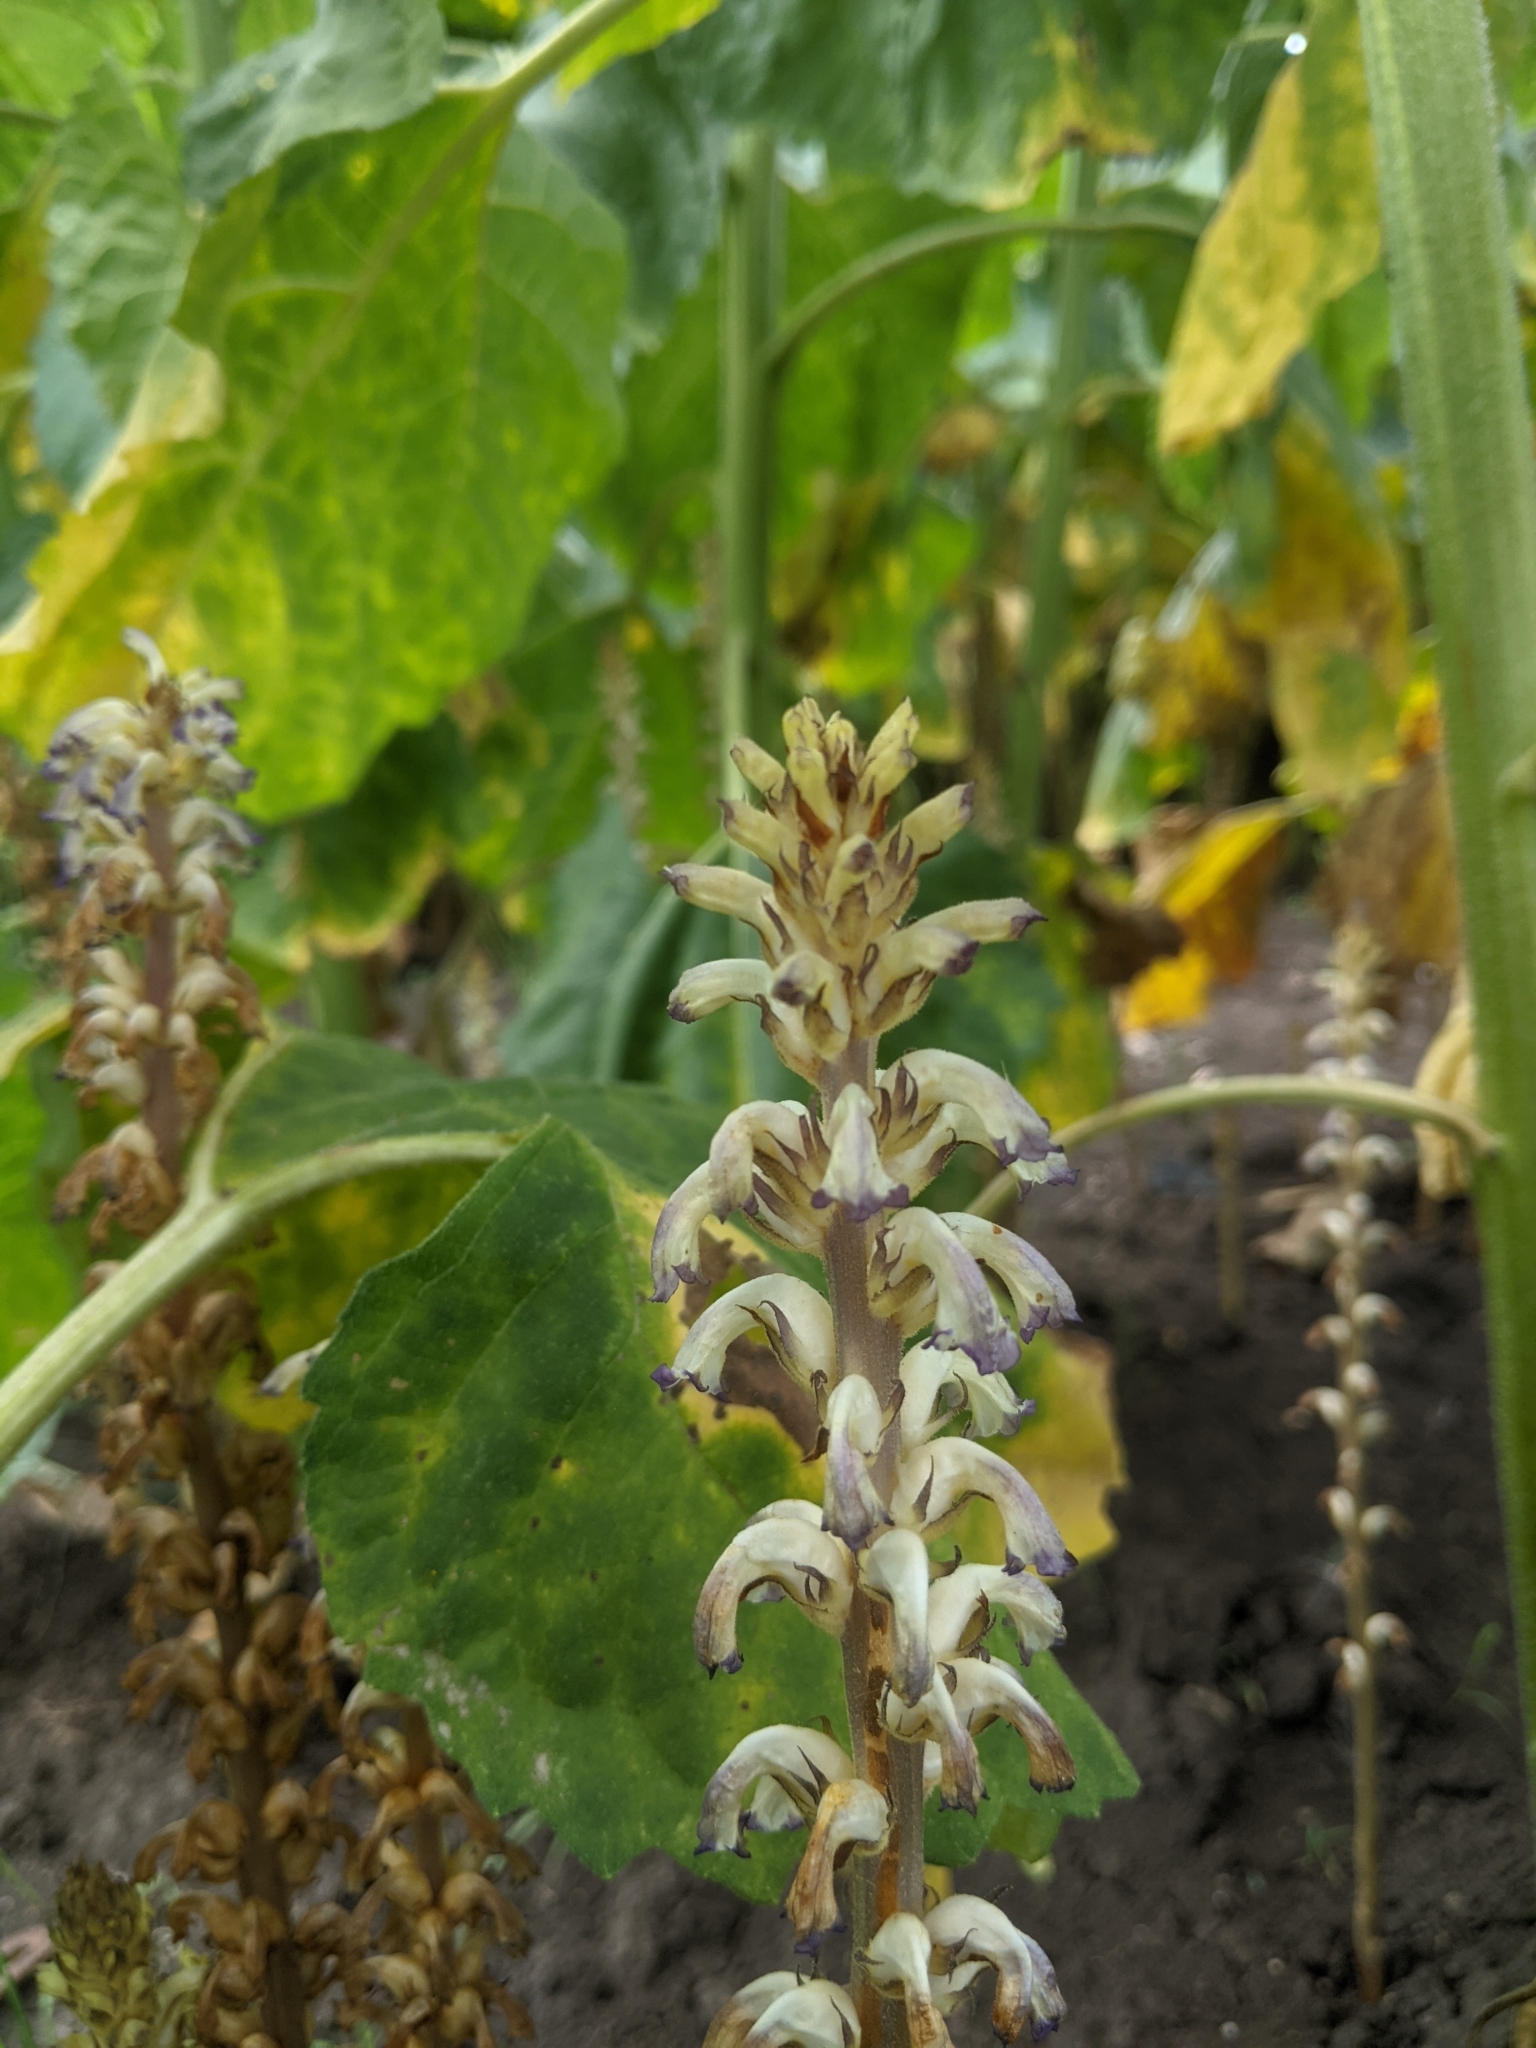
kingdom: Plantae
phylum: Tracheophyta
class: Magnoliopsida
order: Lamiales
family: Orobanchaceae
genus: Orobanche
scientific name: Orobanche cumana
